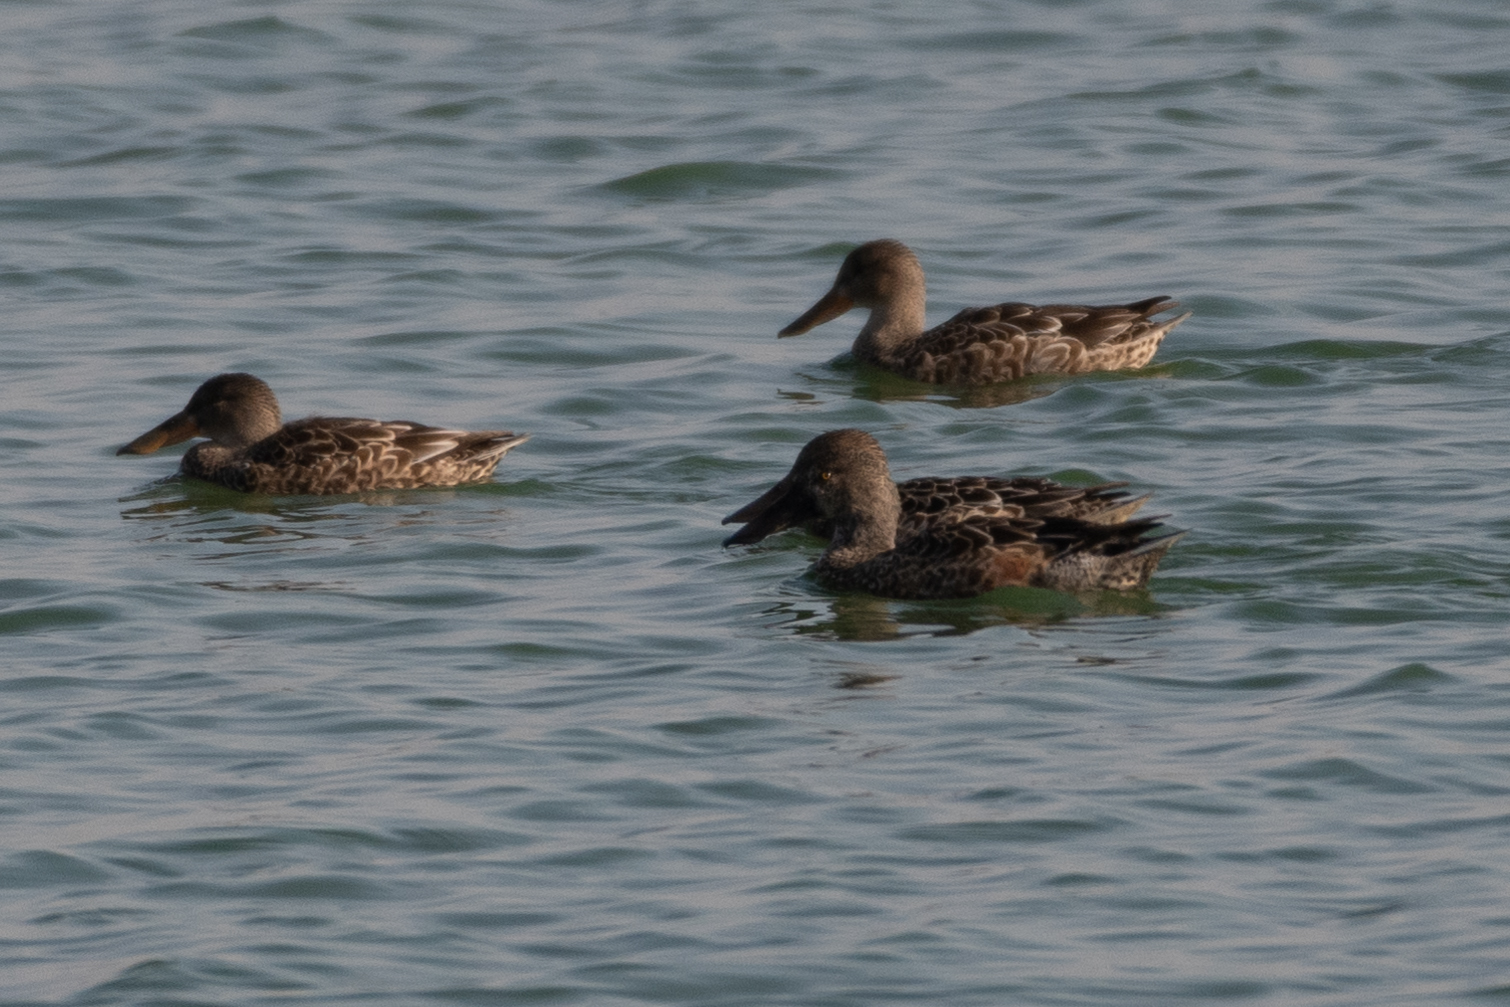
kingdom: Animalia
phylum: Chordata
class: Aves
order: Anseriformes
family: Anatidae
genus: Spatula
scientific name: Spatula clypeata
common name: Northern shoveler
